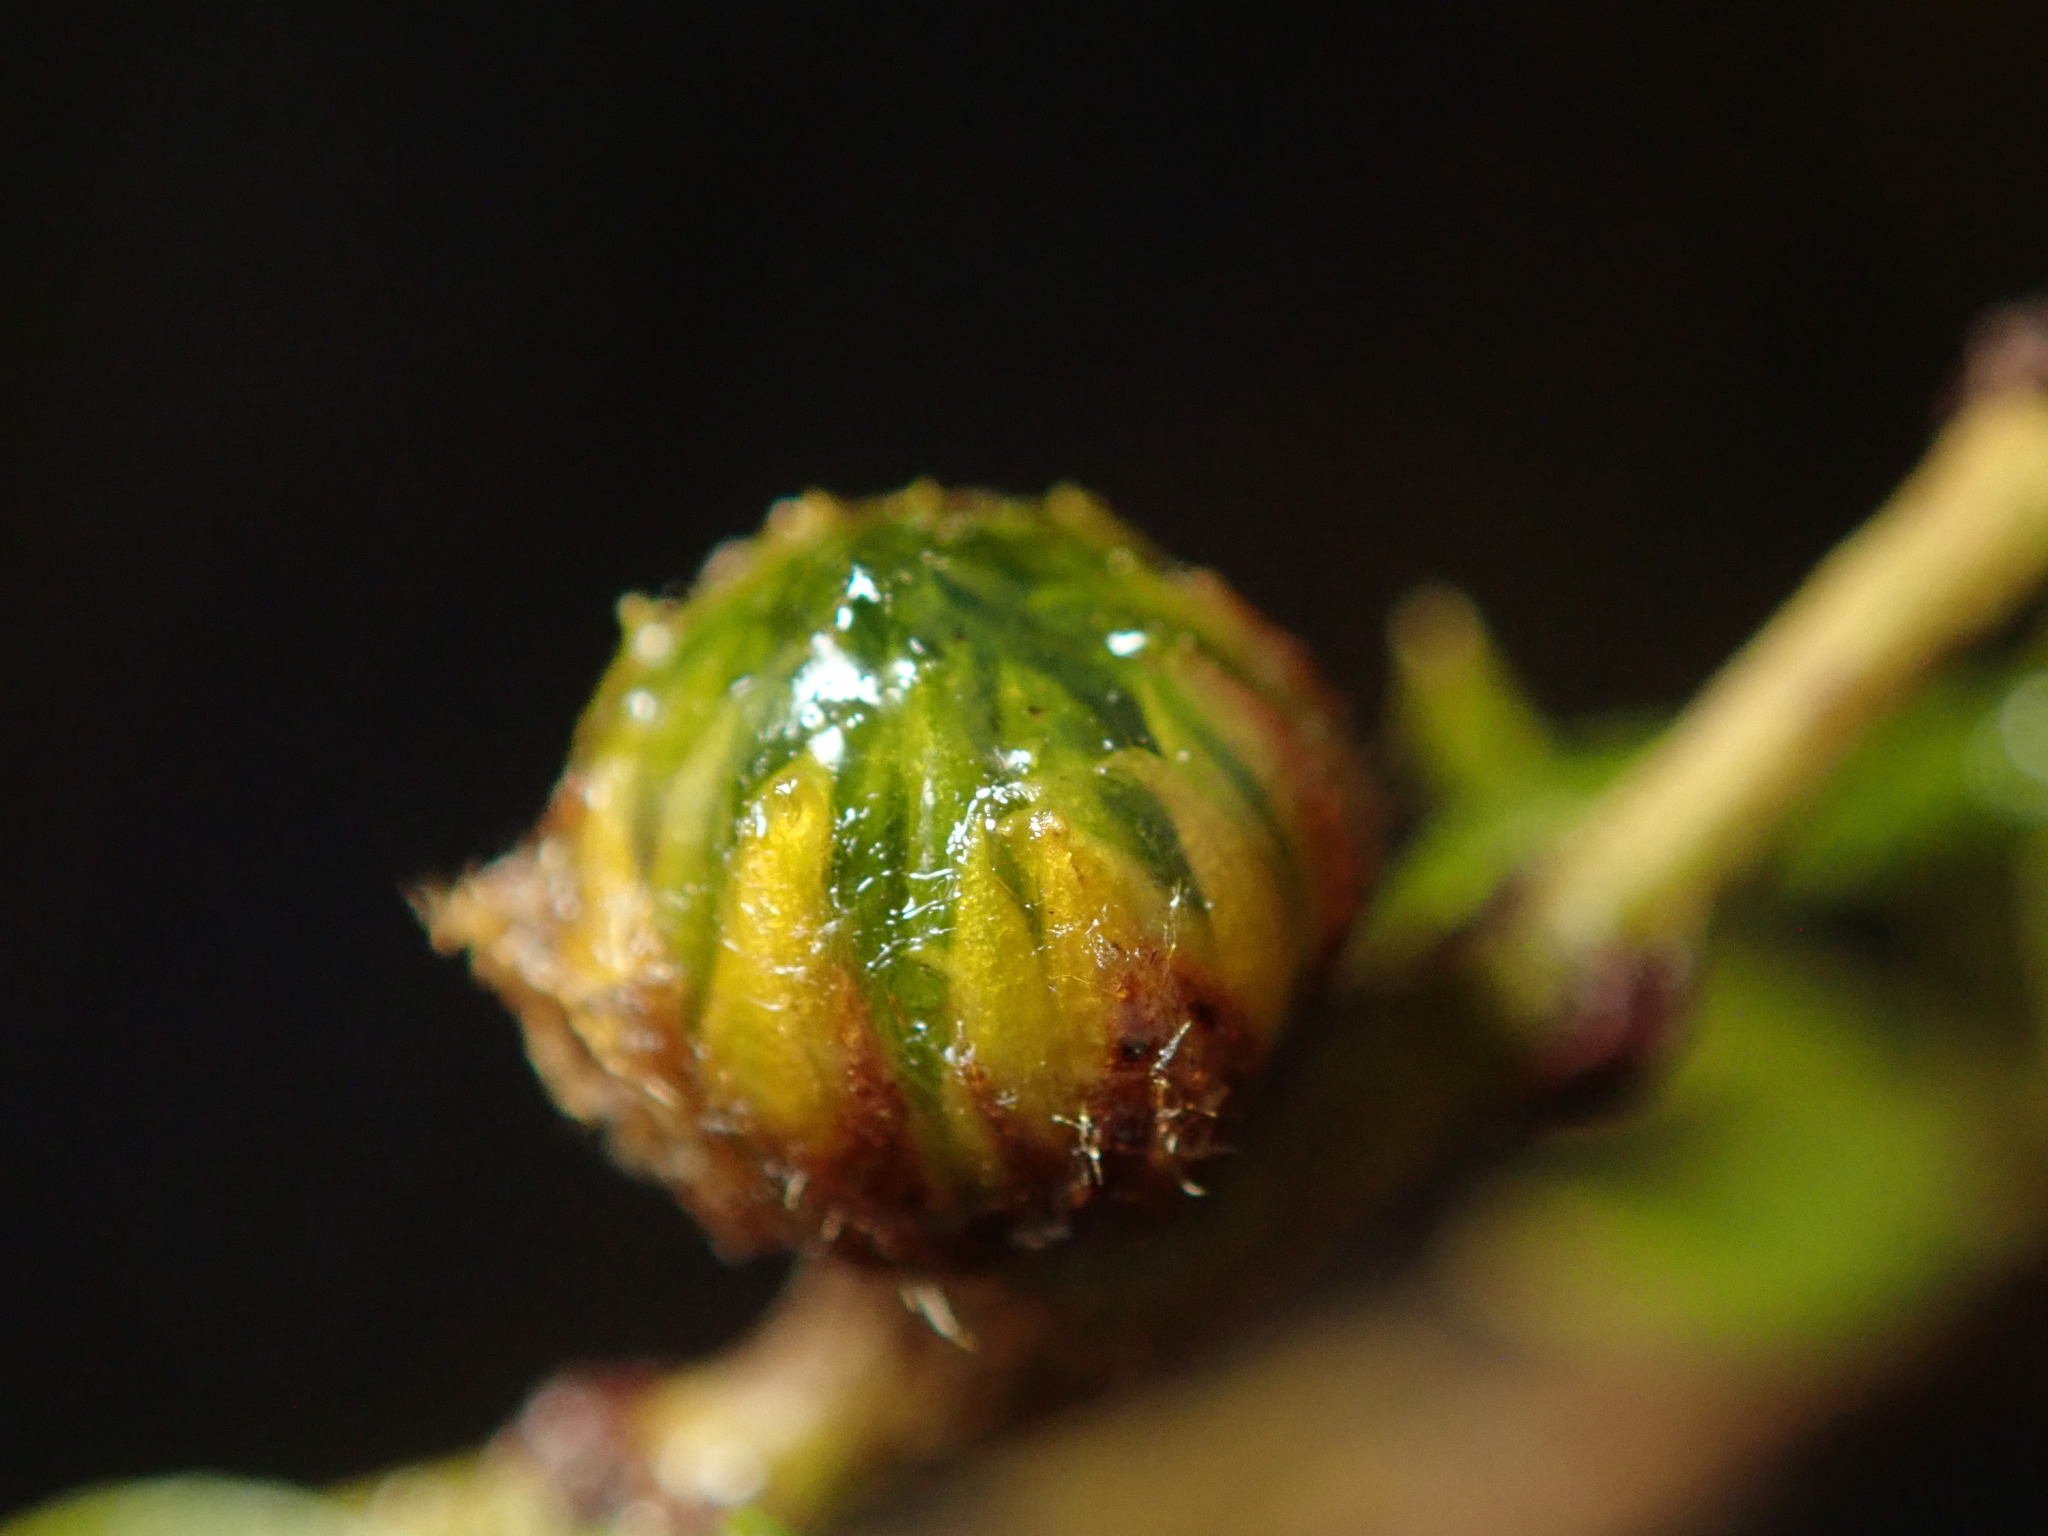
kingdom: Animalia
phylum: Arthropoda
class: Insecta
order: Diptera
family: Cecidomyiidae
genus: Asphondylia
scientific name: Asphondylia resinosa
